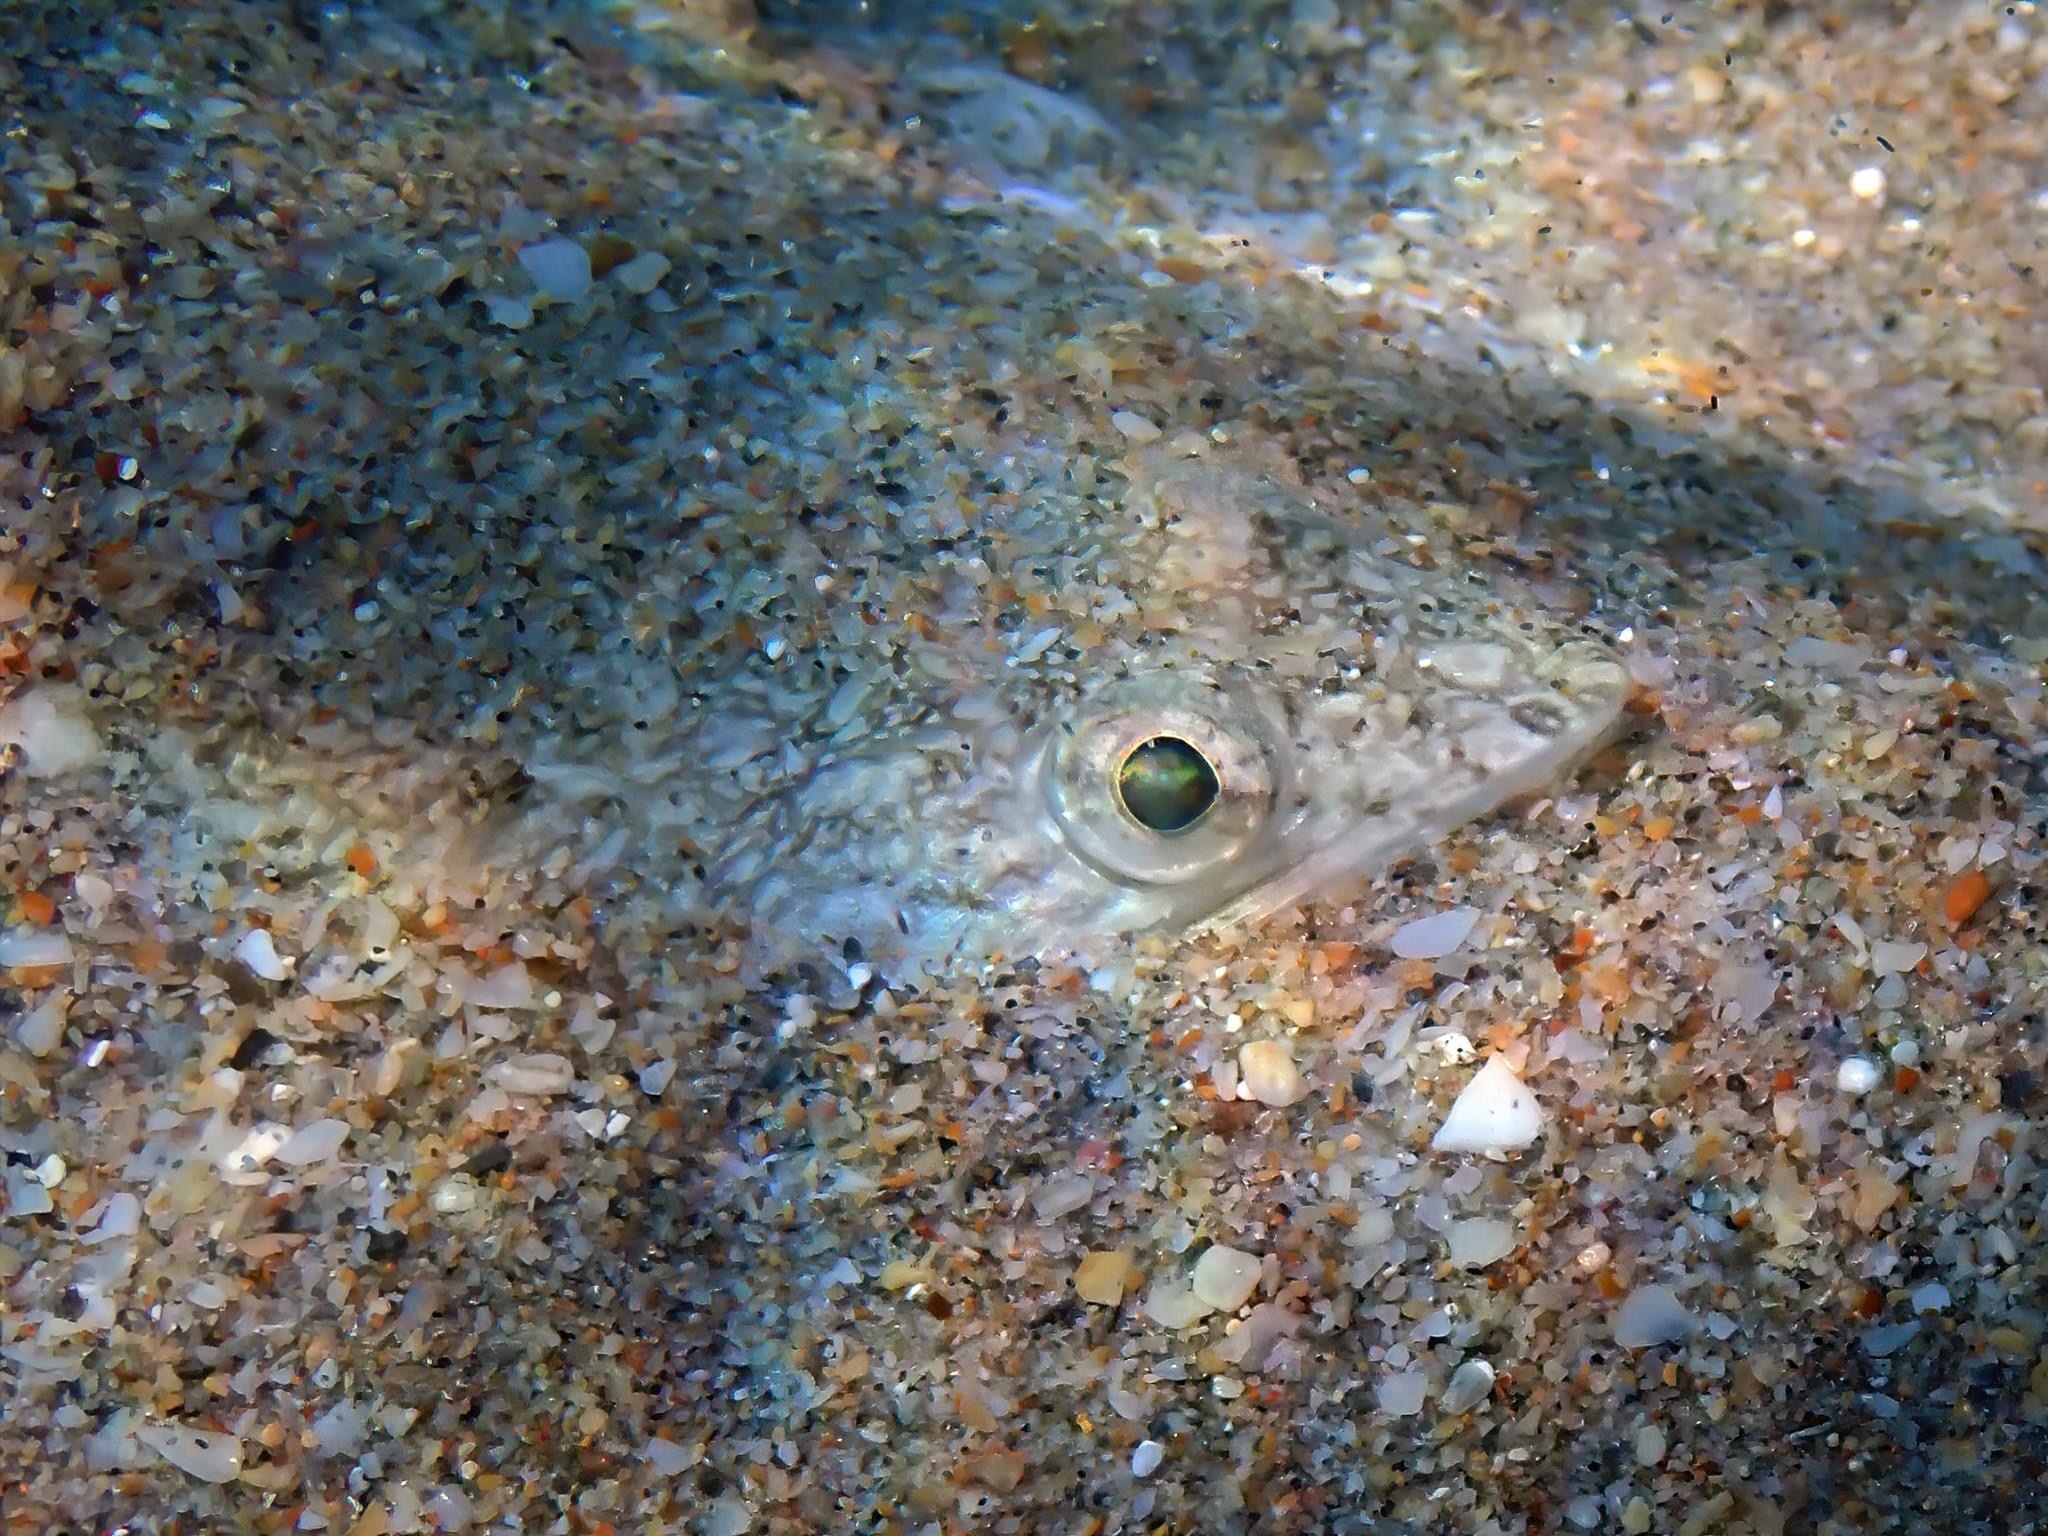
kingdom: Animalia
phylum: Chordata
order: Aulopiformes
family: Synodontidae
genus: Synodus
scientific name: Synodus
